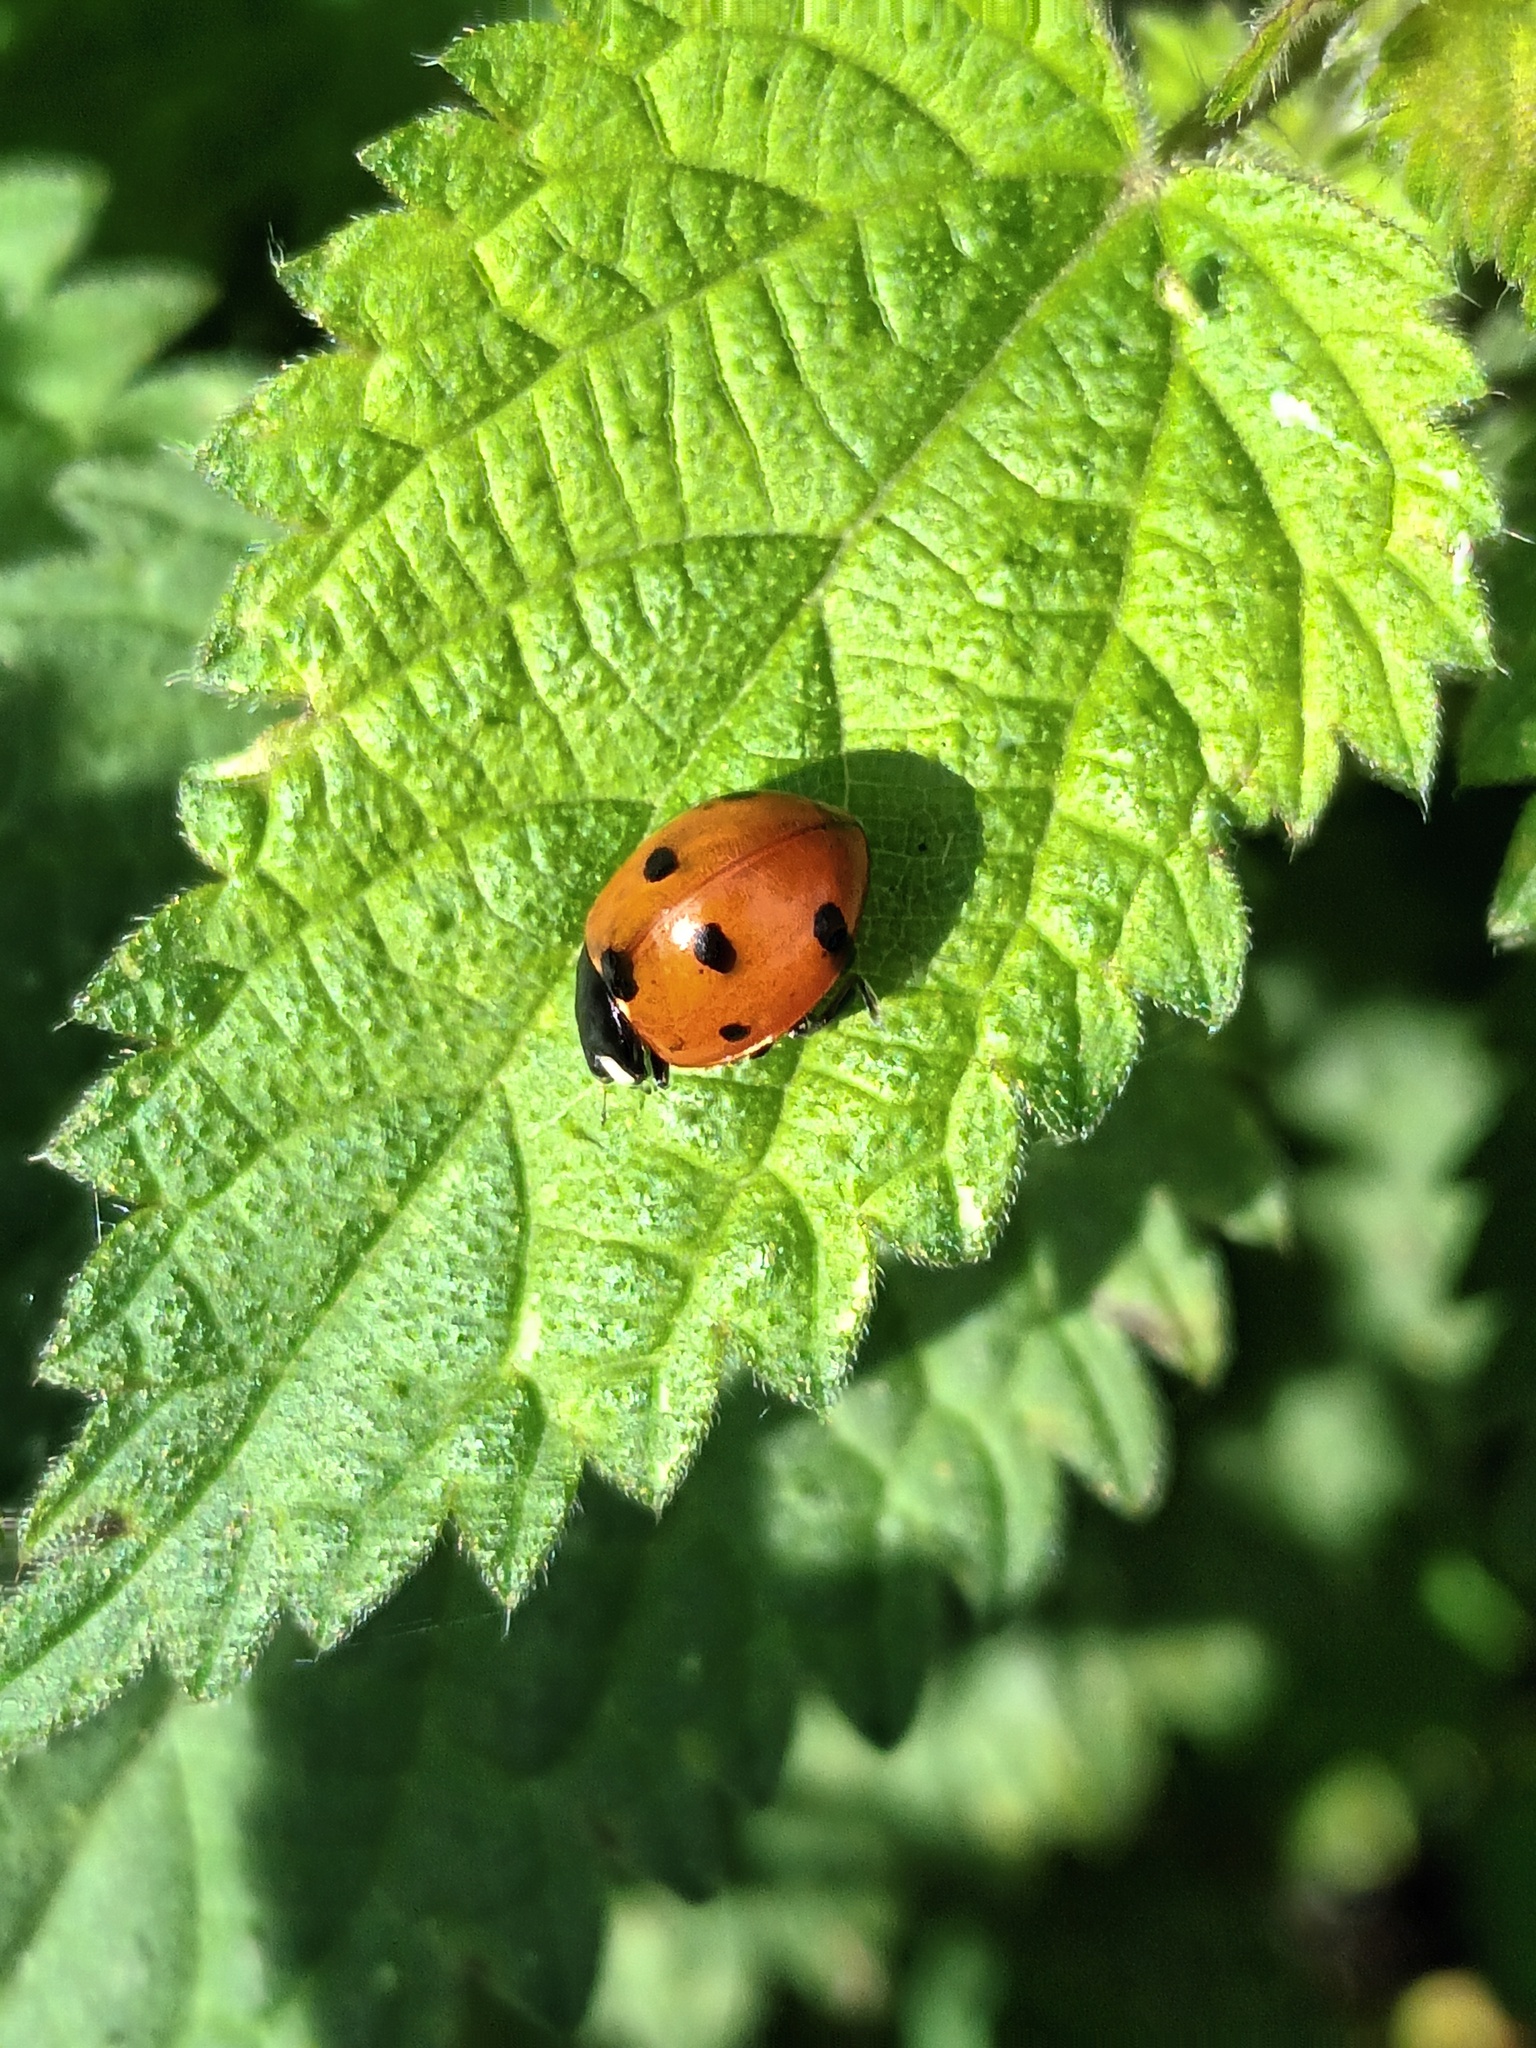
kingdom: Animalia
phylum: Arthropoda
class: Insecta
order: Coleoptera
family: Coccinellidae
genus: Coccinella
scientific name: Coccinella septempunctata
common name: Sevenspotted lady beetle
